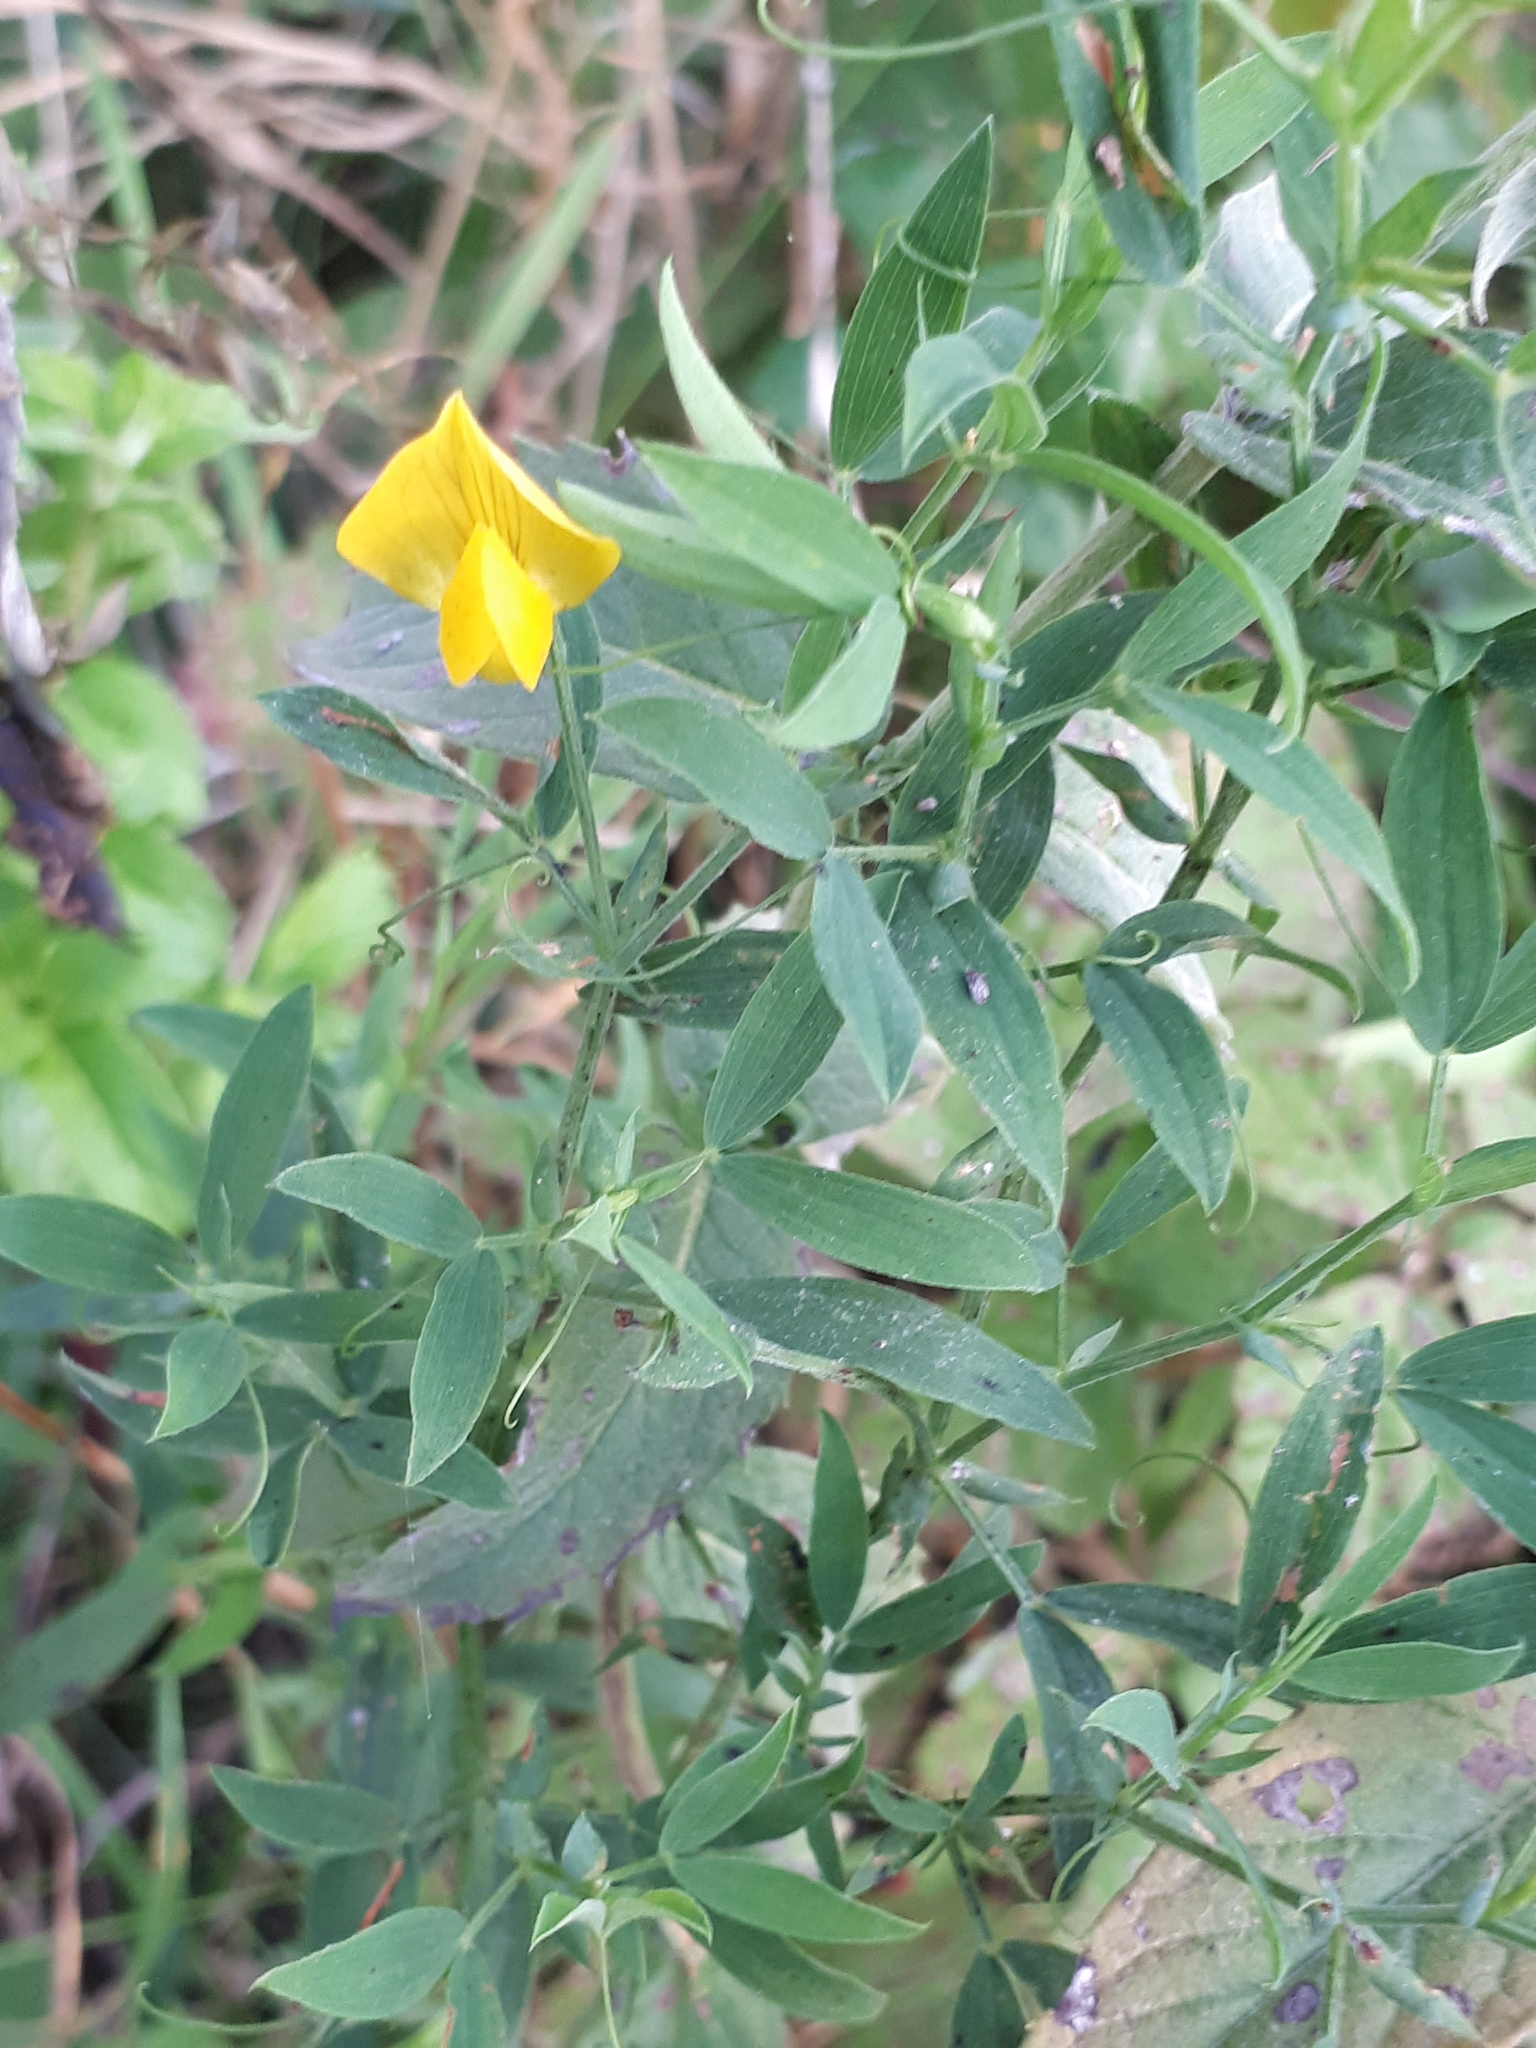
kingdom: Plantae
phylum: Tracheophyta
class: Magnoliopsida
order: Fabales
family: Fabaceae
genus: Lathyrus
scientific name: Lathyrus pratensis
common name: Meadow vetchling
